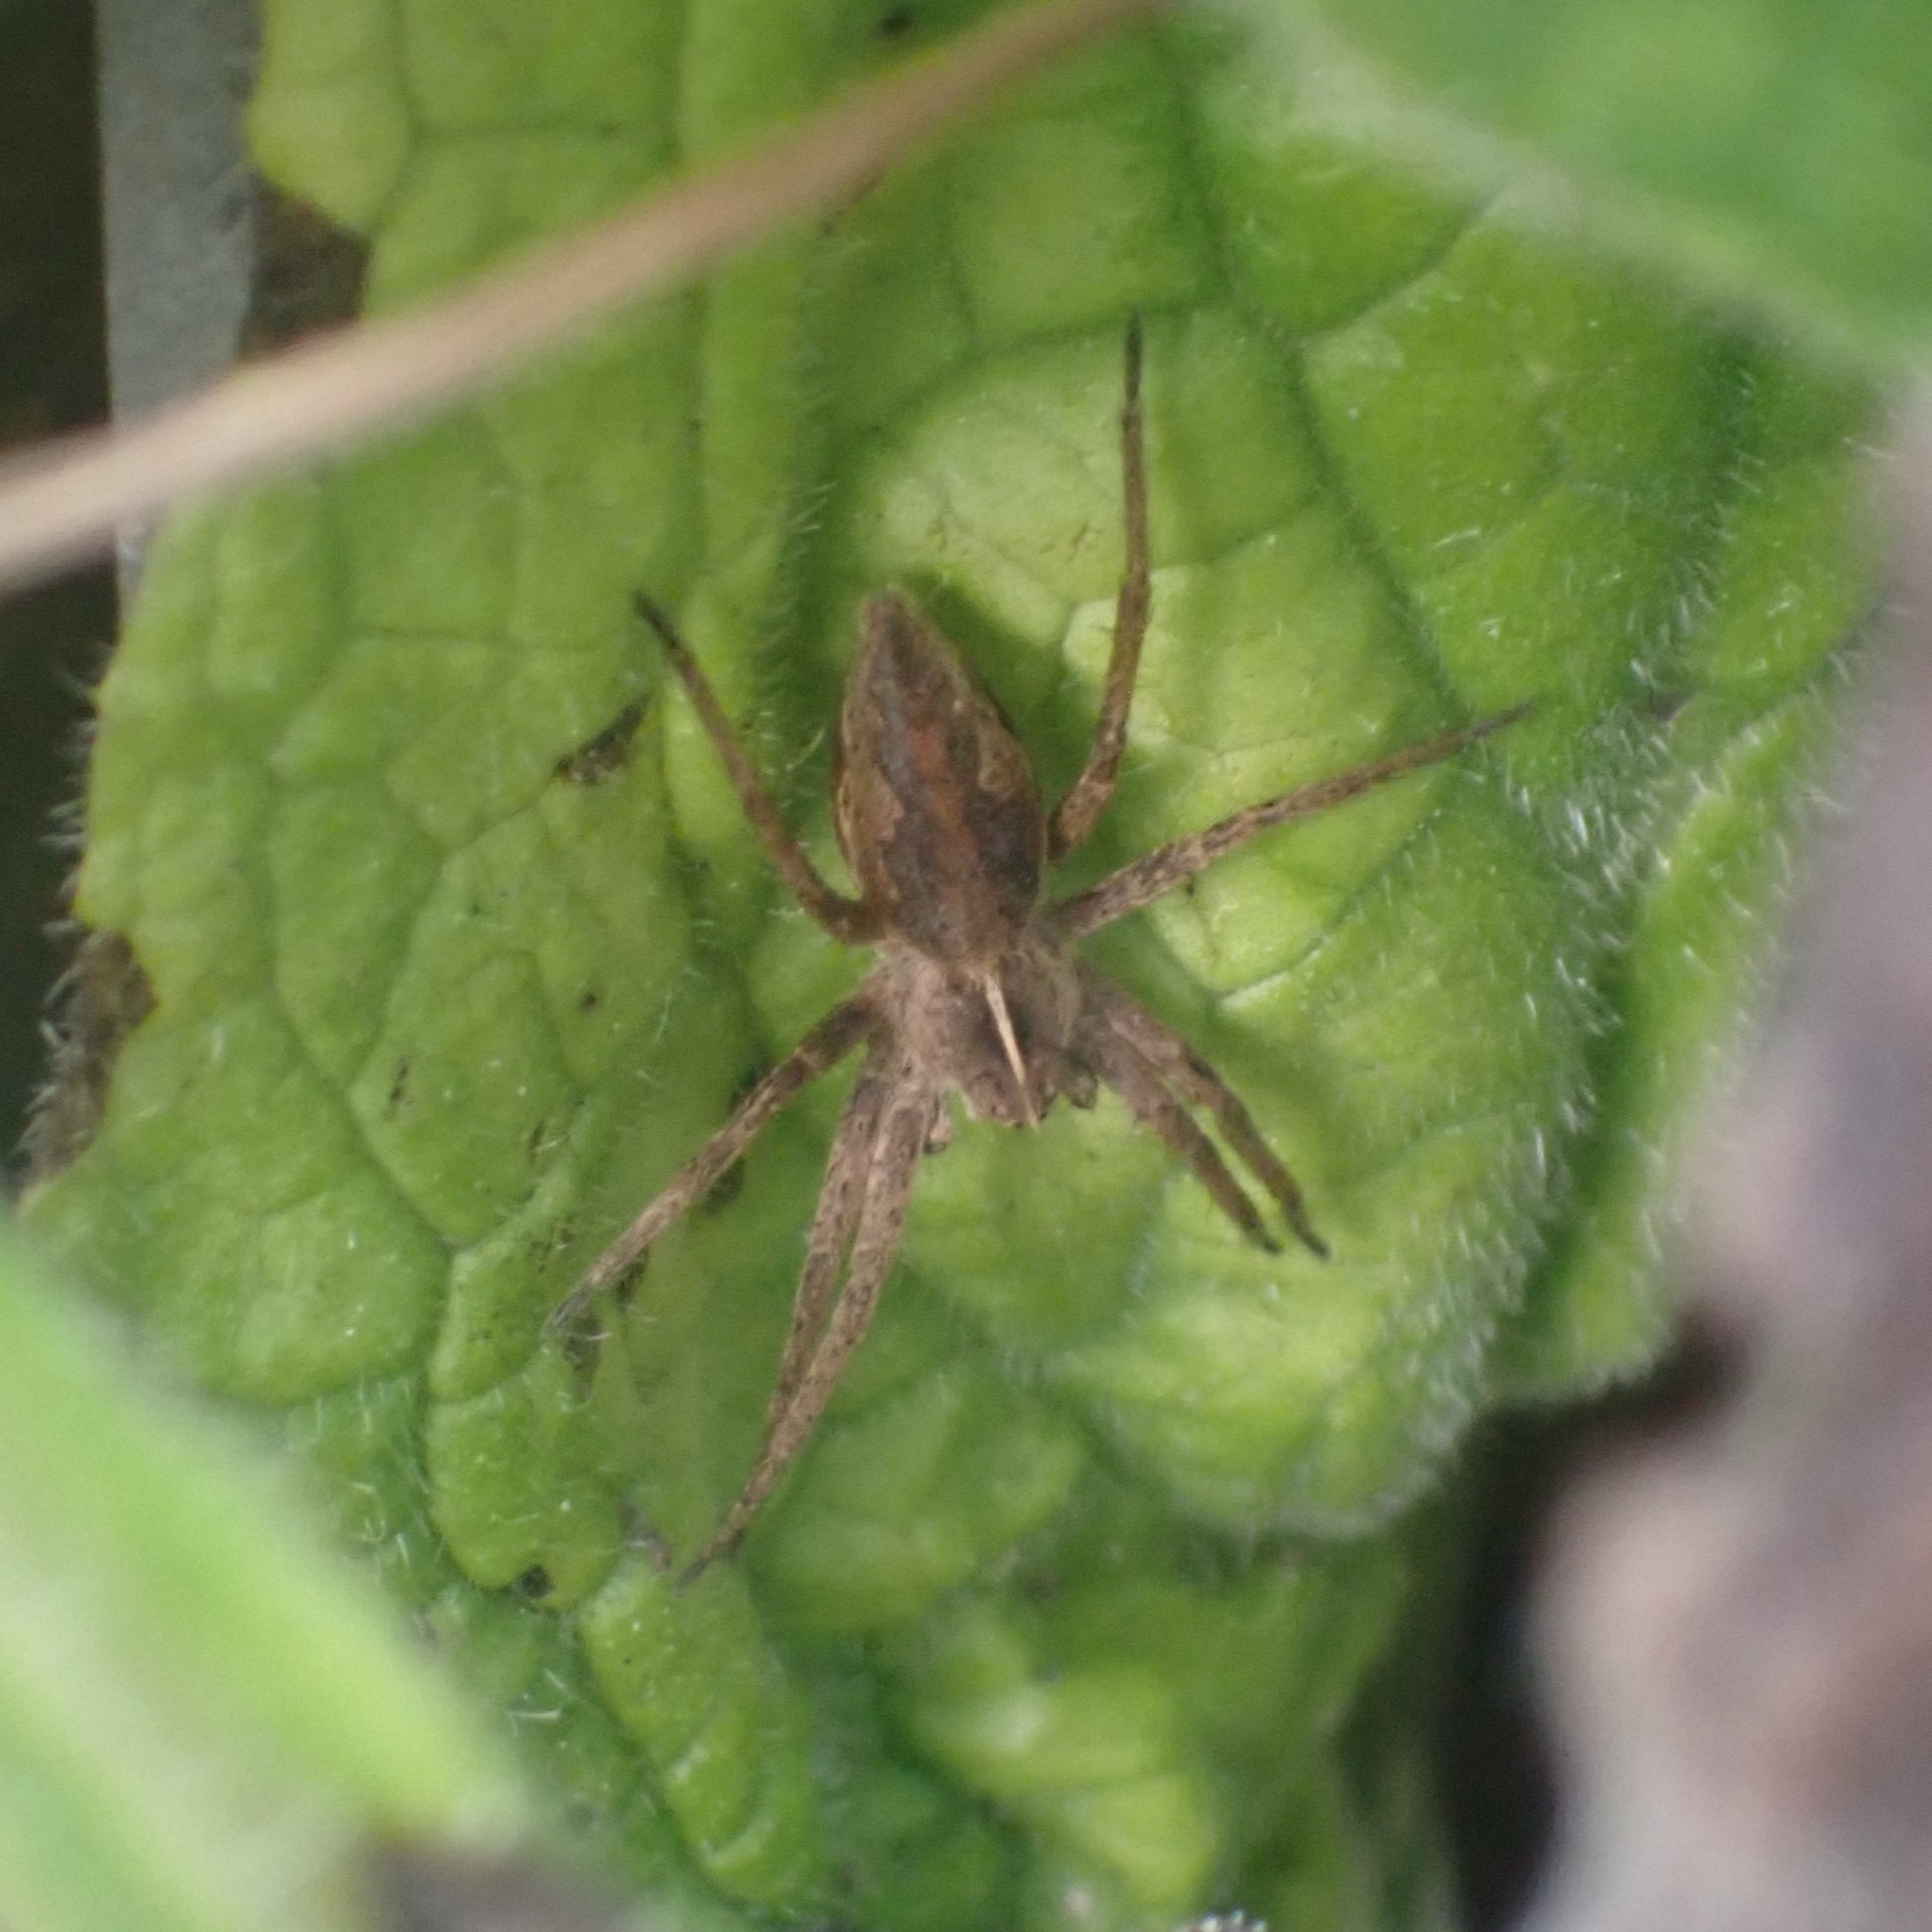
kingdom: Animalia
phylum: Arthropoda
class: Arachnida
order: Araneae
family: Pisauridae
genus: Pisaura
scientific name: Pisaura mirabilis
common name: Tent spider
